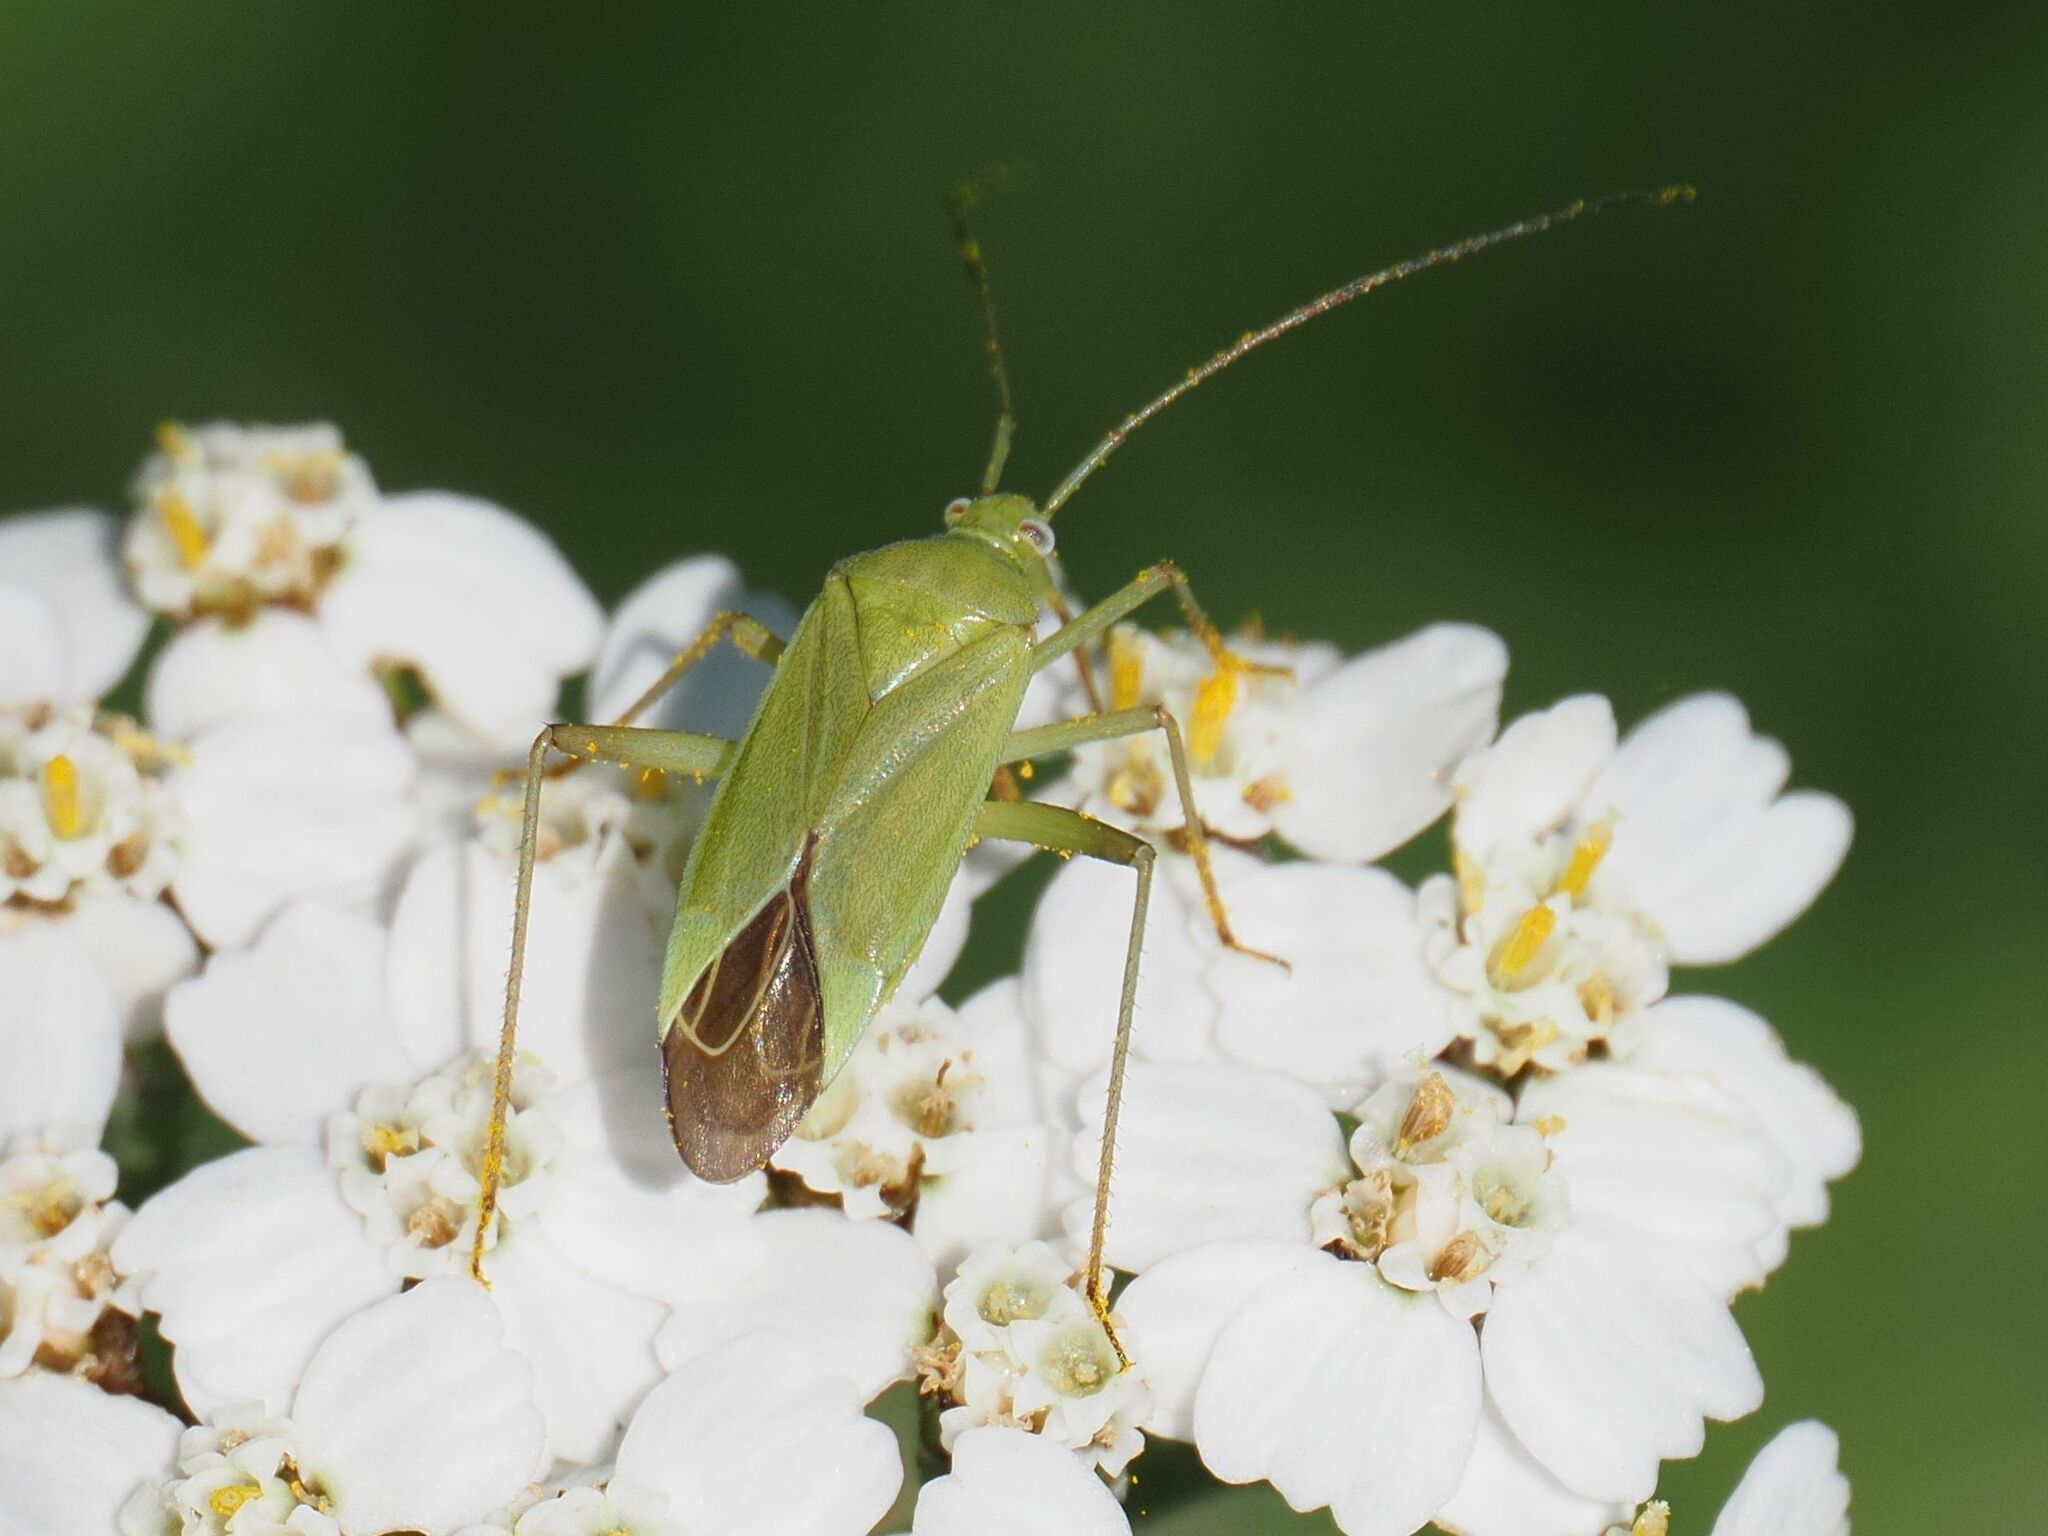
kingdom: Animalia
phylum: Arthropoda
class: Insecta
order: Hemiptera
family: Miridae
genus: Calocoris
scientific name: Calocoris affinis
